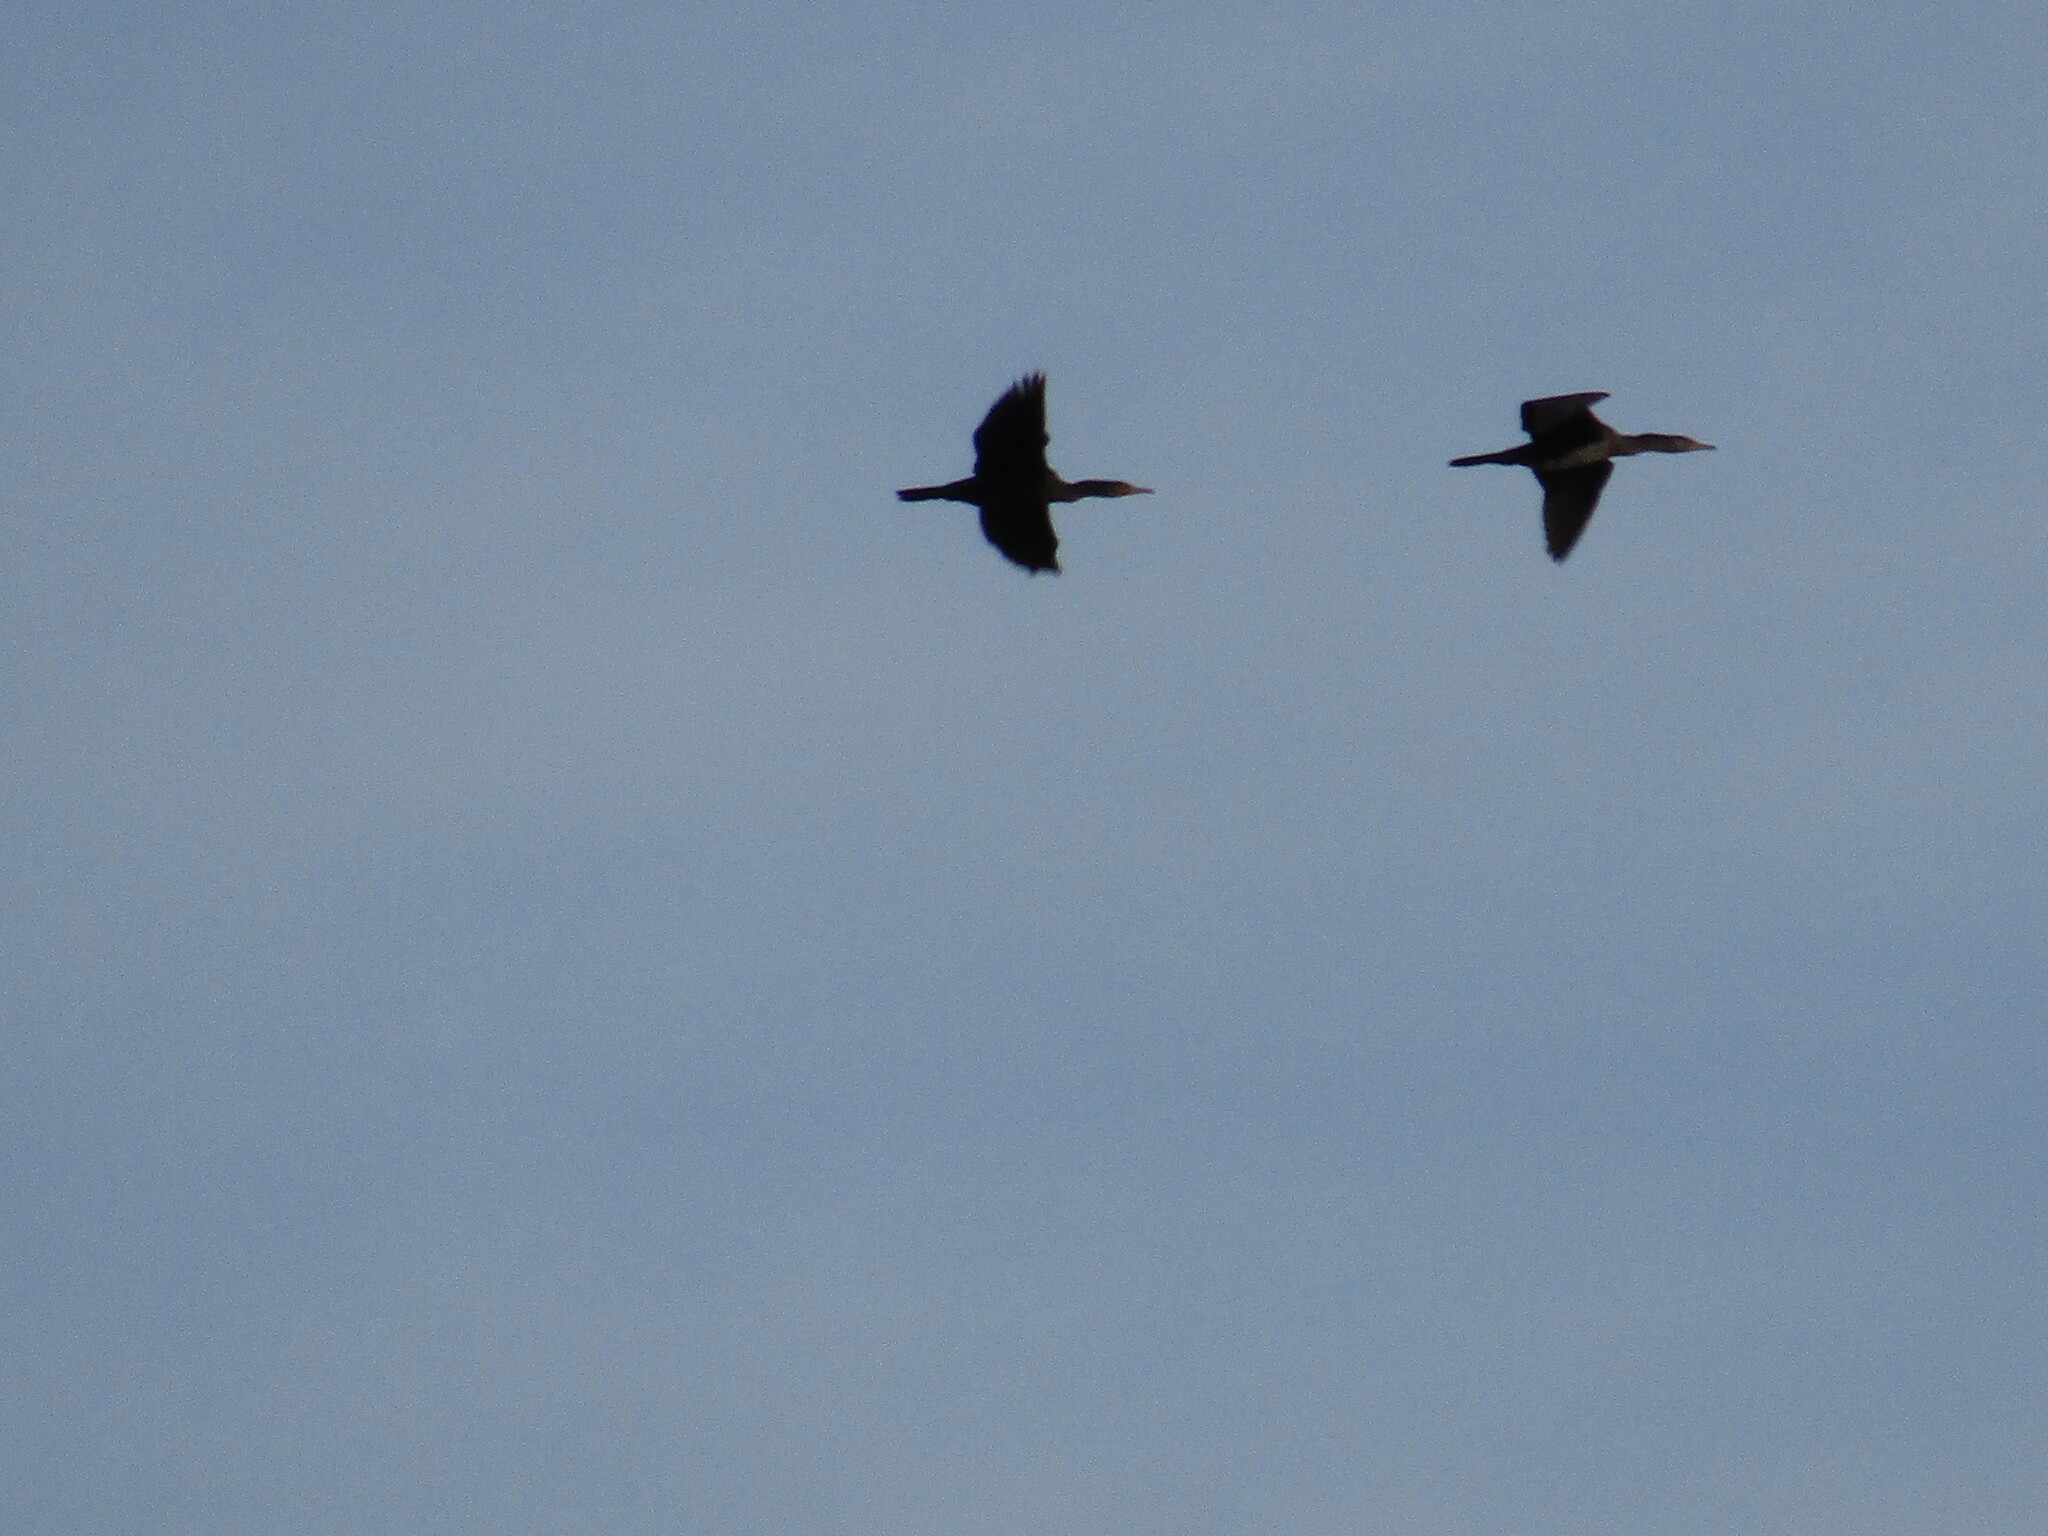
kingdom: Animalia
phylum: Chordata
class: Aves
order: Suliformes
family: Phalacrocoracidae
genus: Phalacrocorax
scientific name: Phalacrocorax carbo
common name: Great cormorant
